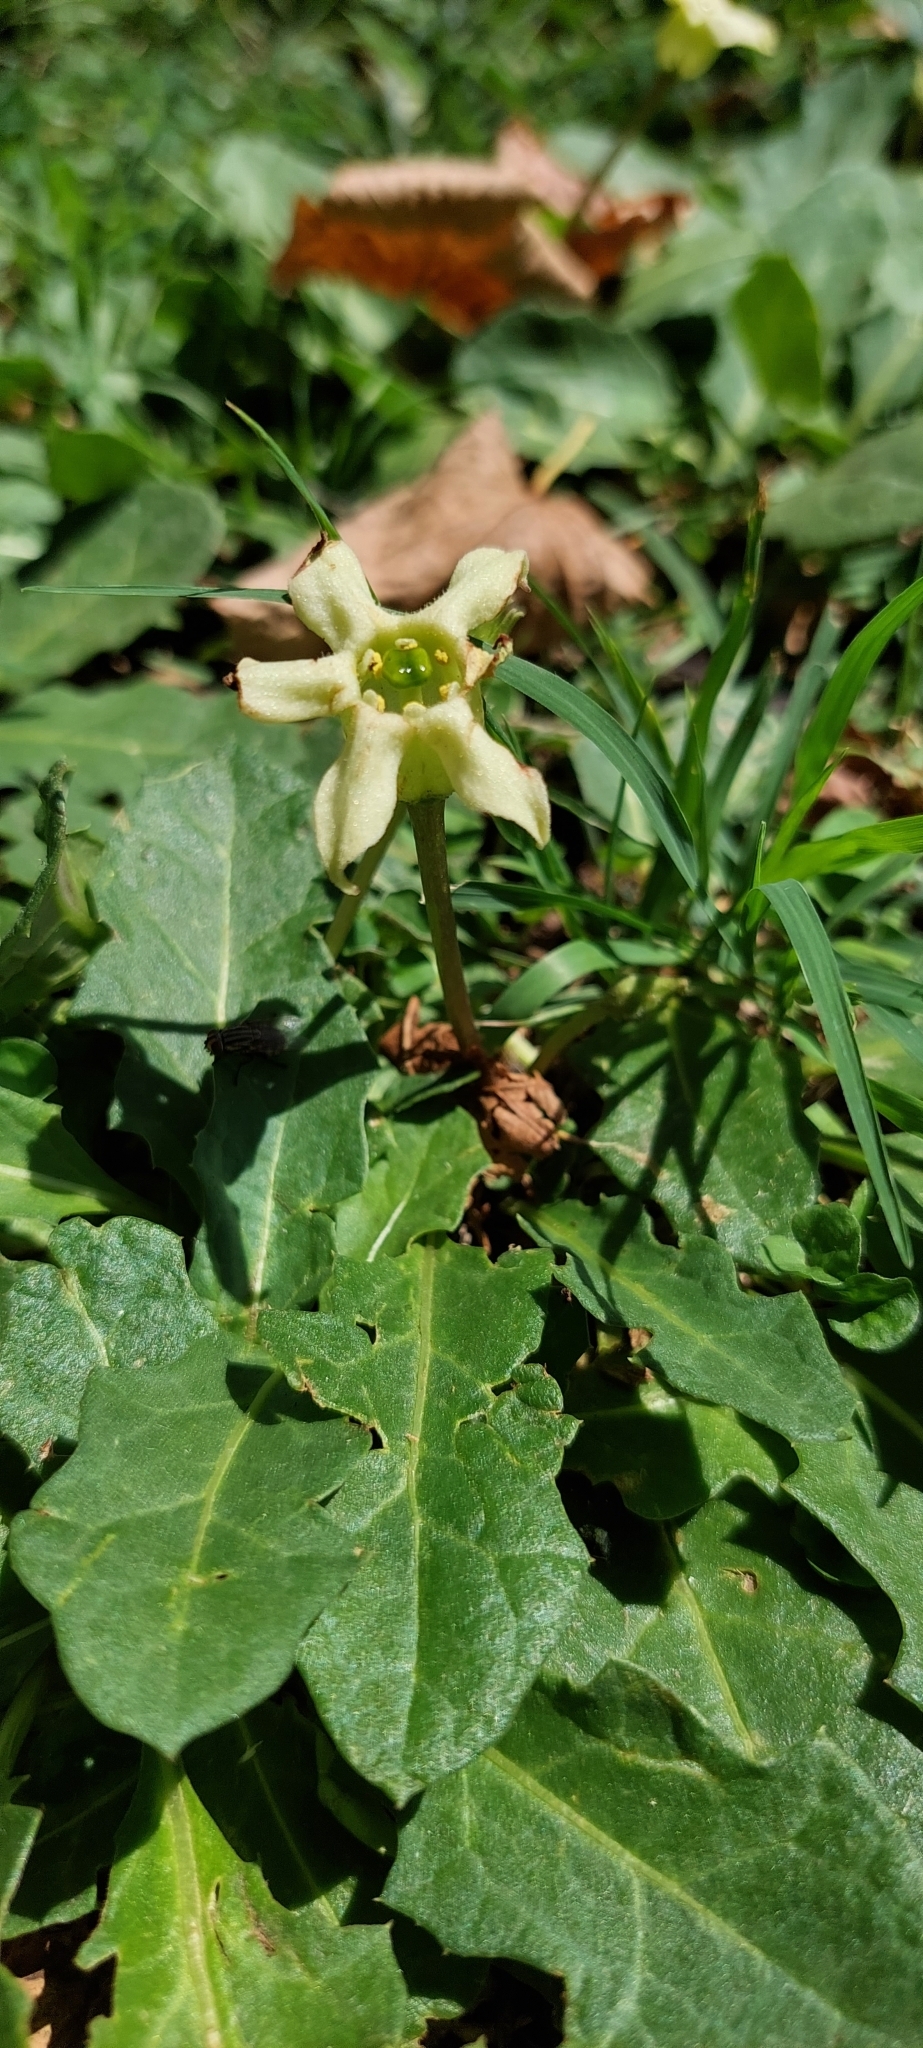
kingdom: Plantae
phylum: Tracheophyta
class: Magnoliopsida
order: Solanales
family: Solanaceae
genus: Jaborosa
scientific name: Jaborosa runcinata
